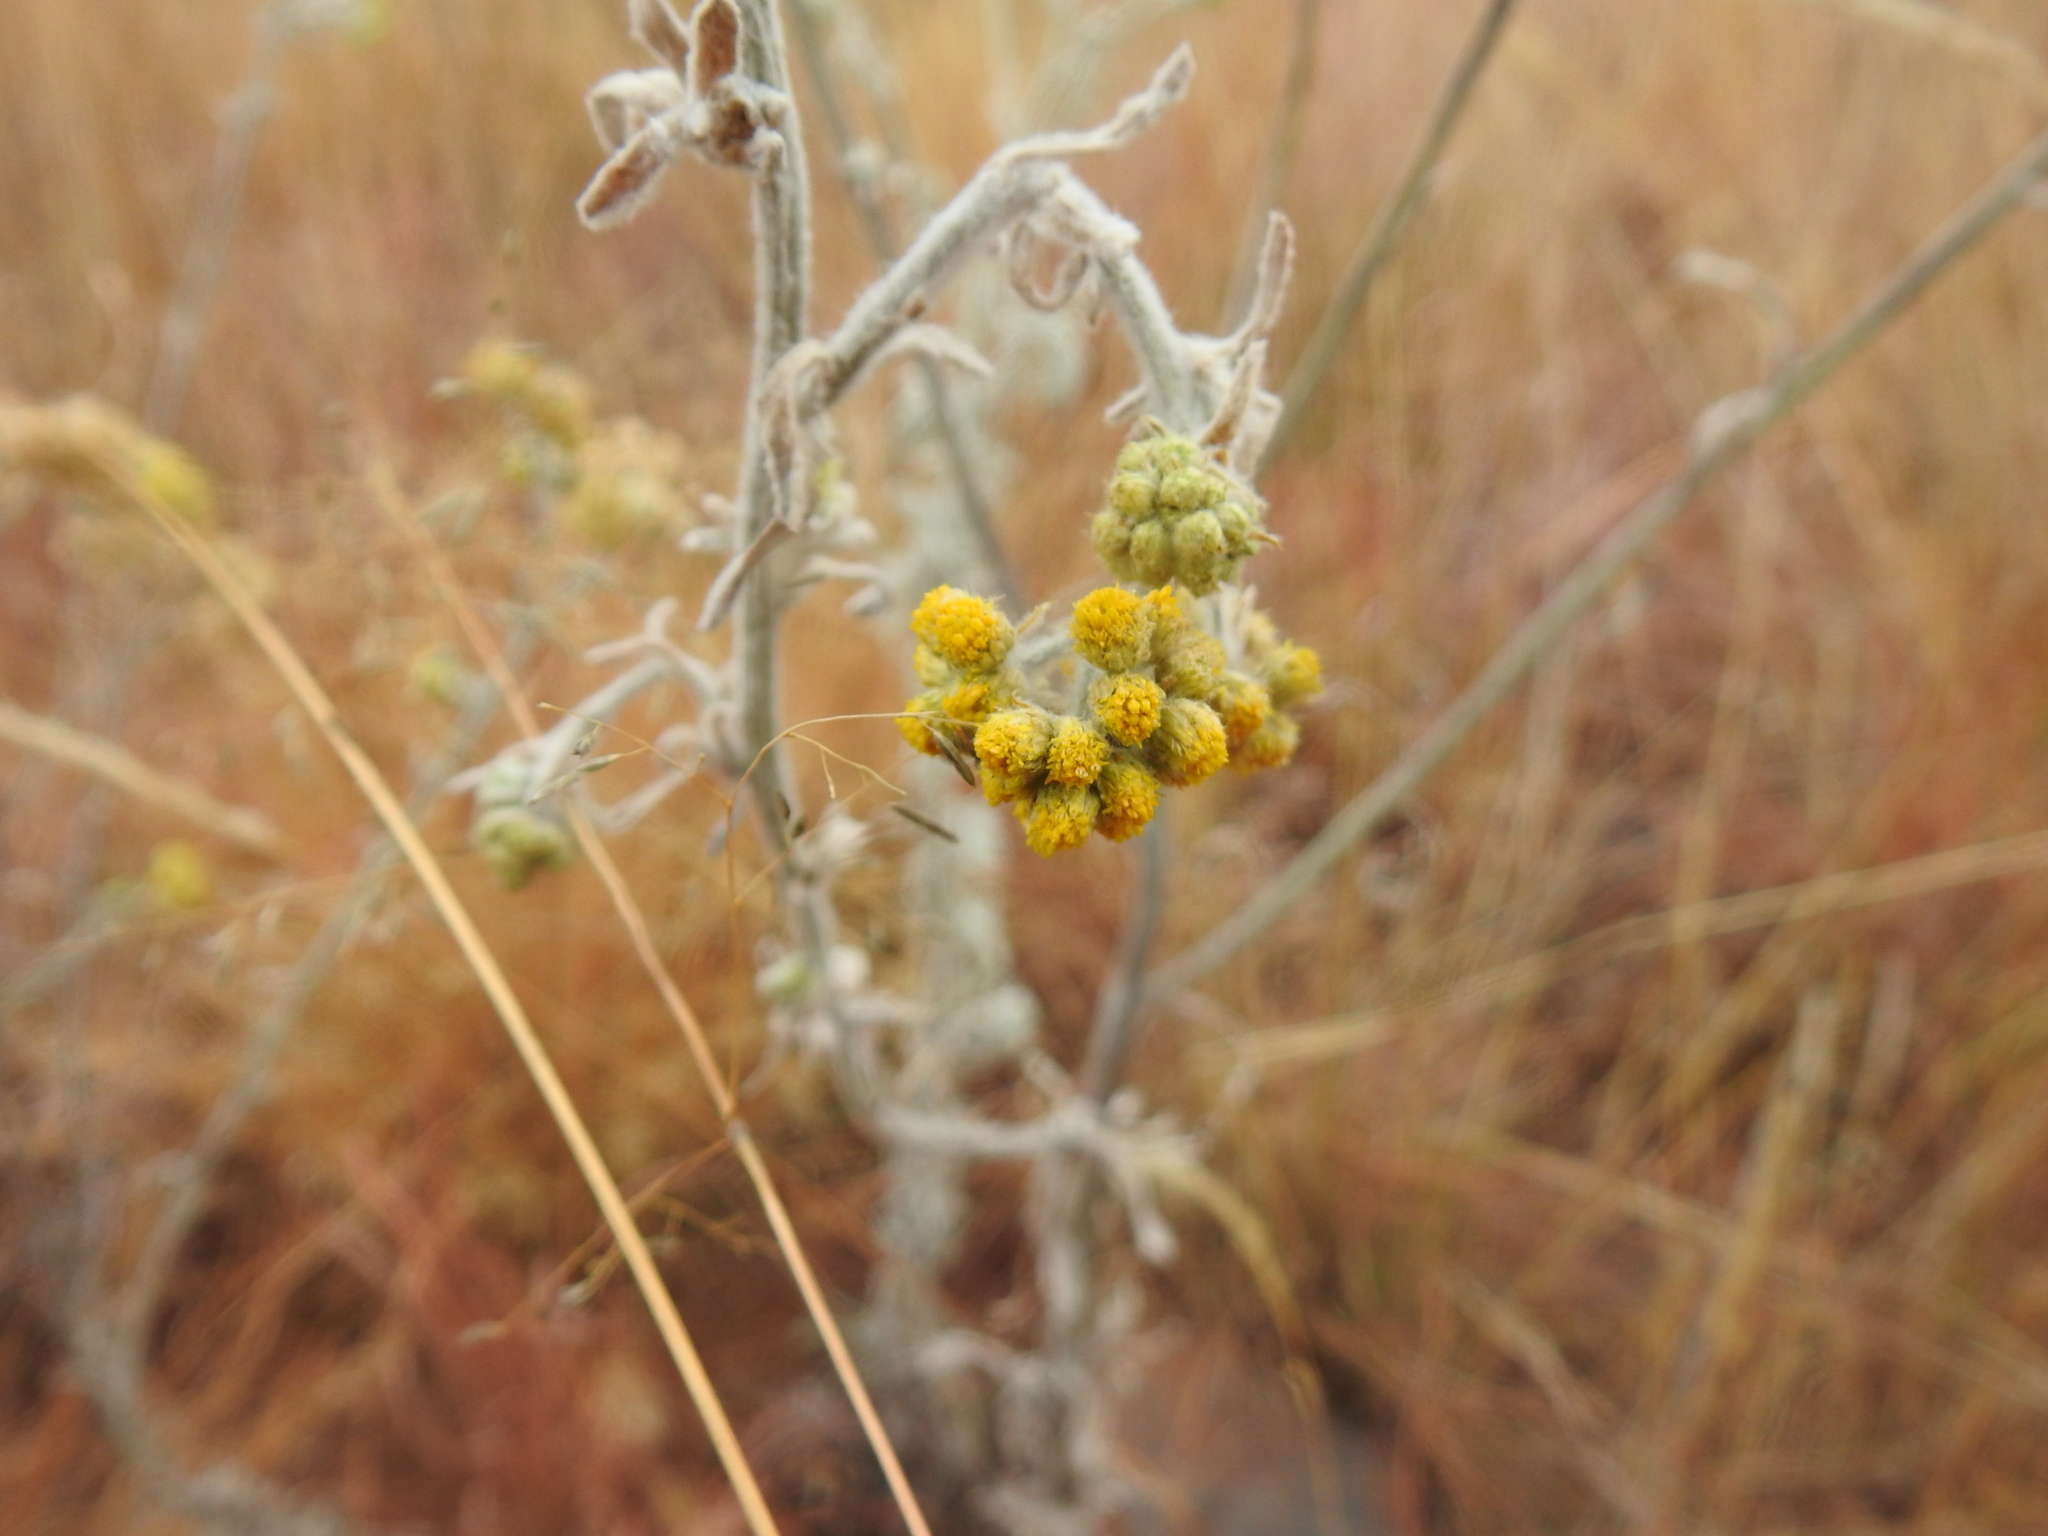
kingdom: Plantae
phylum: Tracheophyta
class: Magnoliopsida
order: Asterales
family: Asteraceae
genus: Nidorella
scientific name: Nidorella hottentotica
